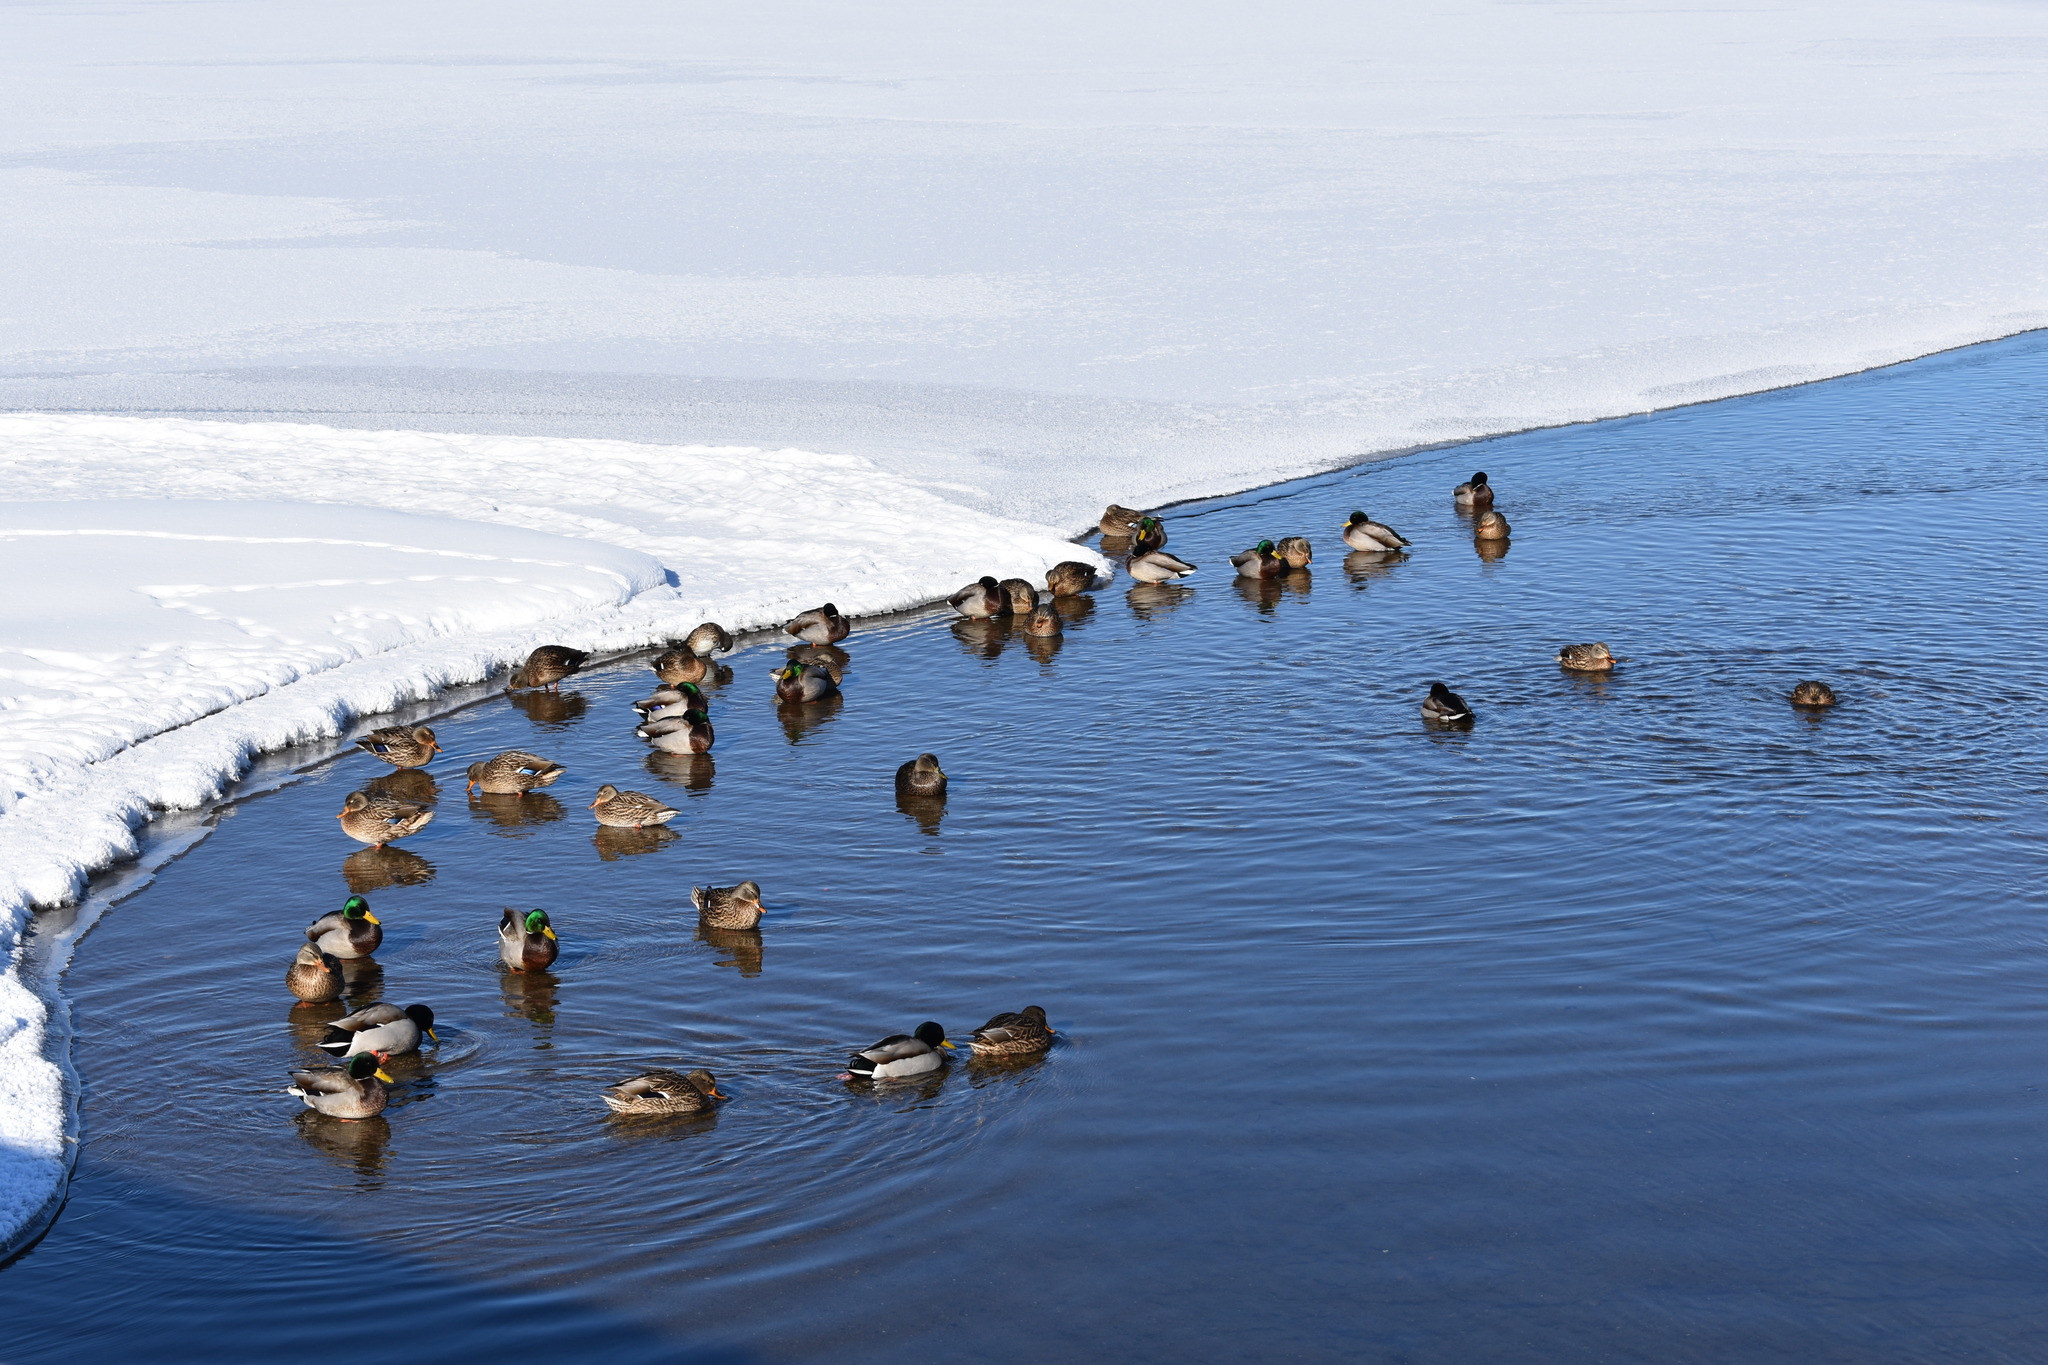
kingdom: Animalia
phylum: Chordata
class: Aves
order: Anseriformes
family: Anatidae
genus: Anas
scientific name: Anas platyrhynchos
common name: Mallard
